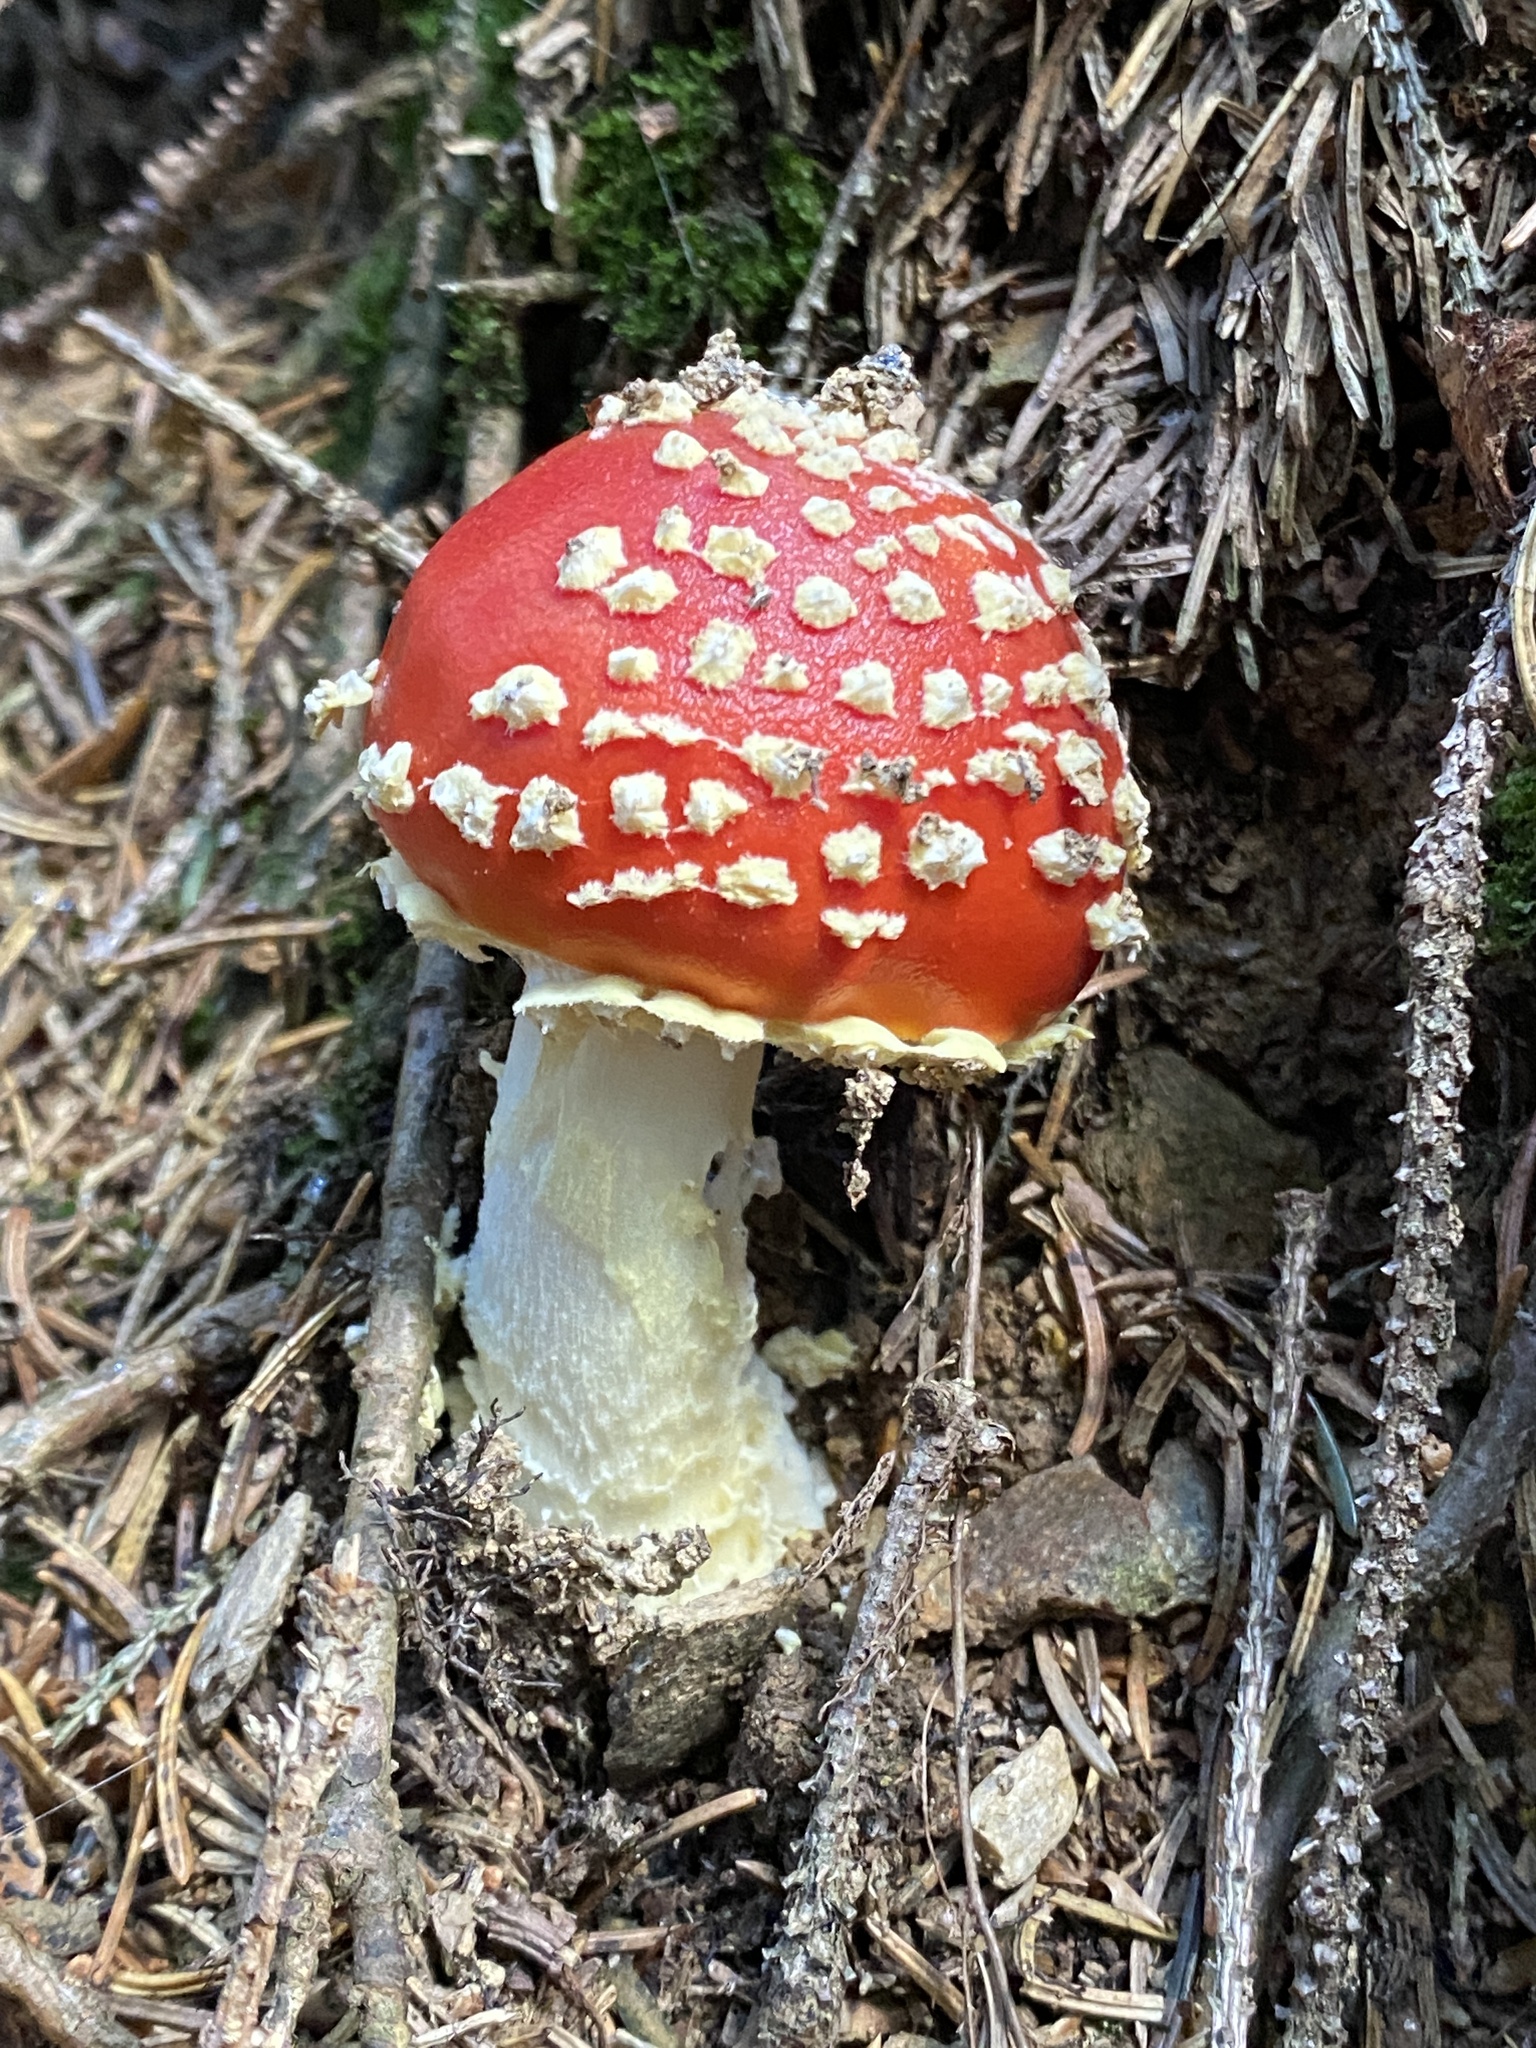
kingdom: Fungi
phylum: Basidiomycota
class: Agaricomycetes
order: Agaricales
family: Amanitaceae
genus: Amanita
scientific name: Amanita muscaria
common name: Fly agaric
